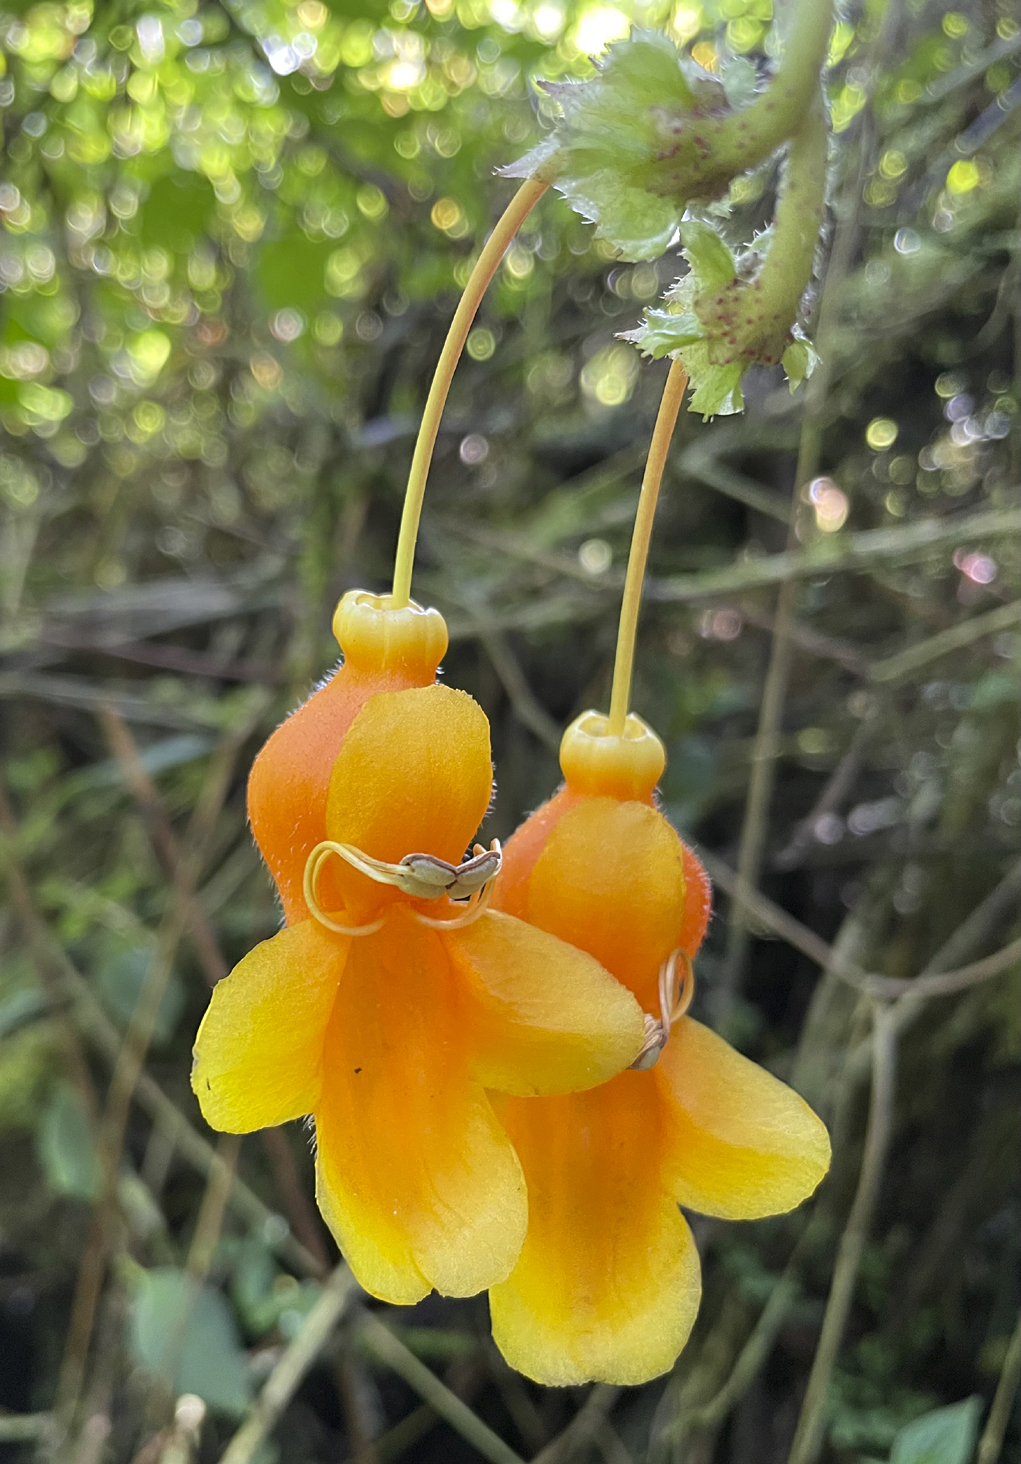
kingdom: Plantae
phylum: Tracheophyta
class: Magnoliopsida
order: Lamiales
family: Gesneriaceae
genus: Columnea
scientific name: Columnea strigosa
